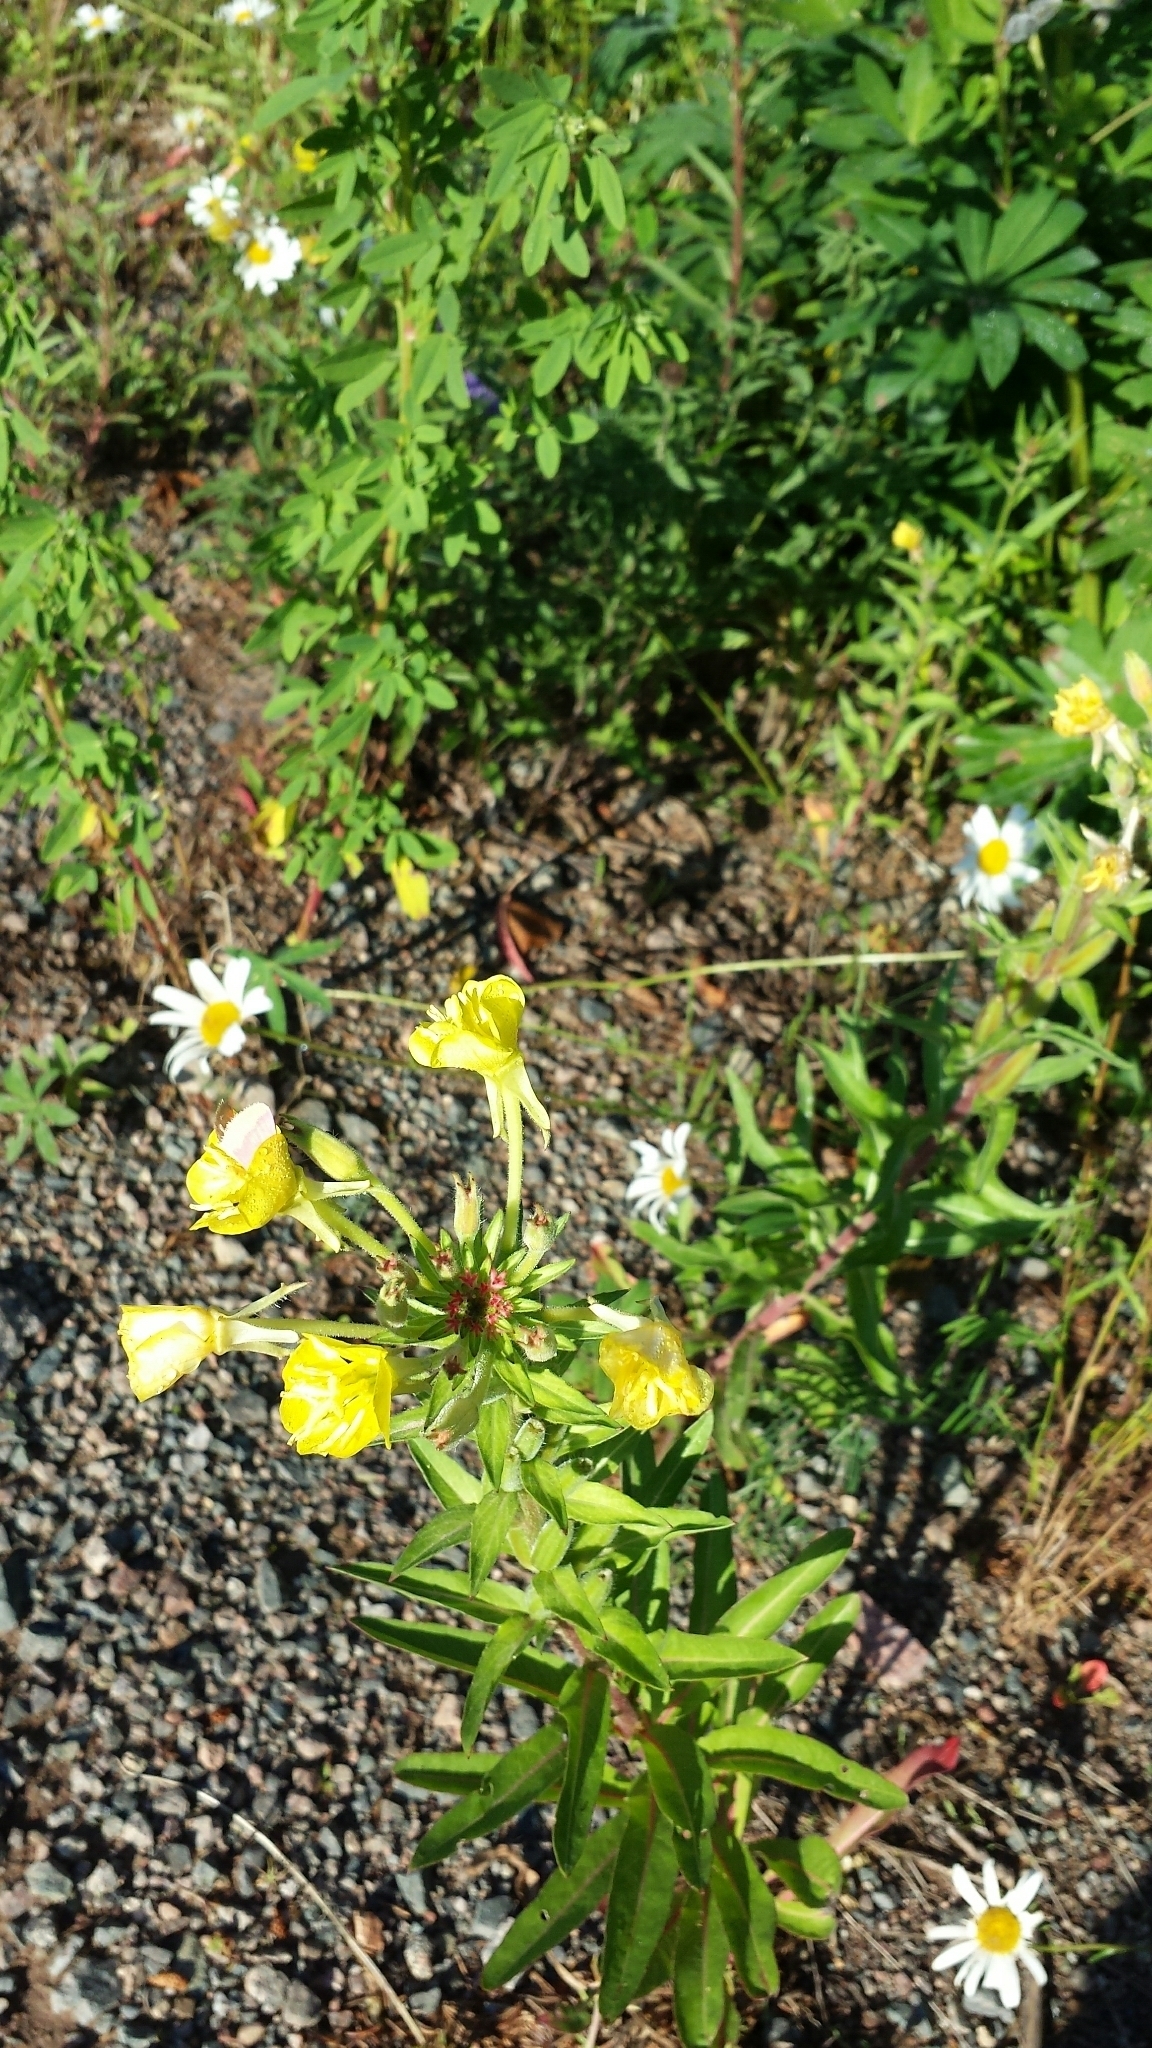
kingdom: Plantae
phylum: Tracheophyta
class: Magnoliopsida
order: Myrtales
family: Onagraceae
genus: Oenothera
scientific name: Oenothera biennis
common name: Common evening-primrose
